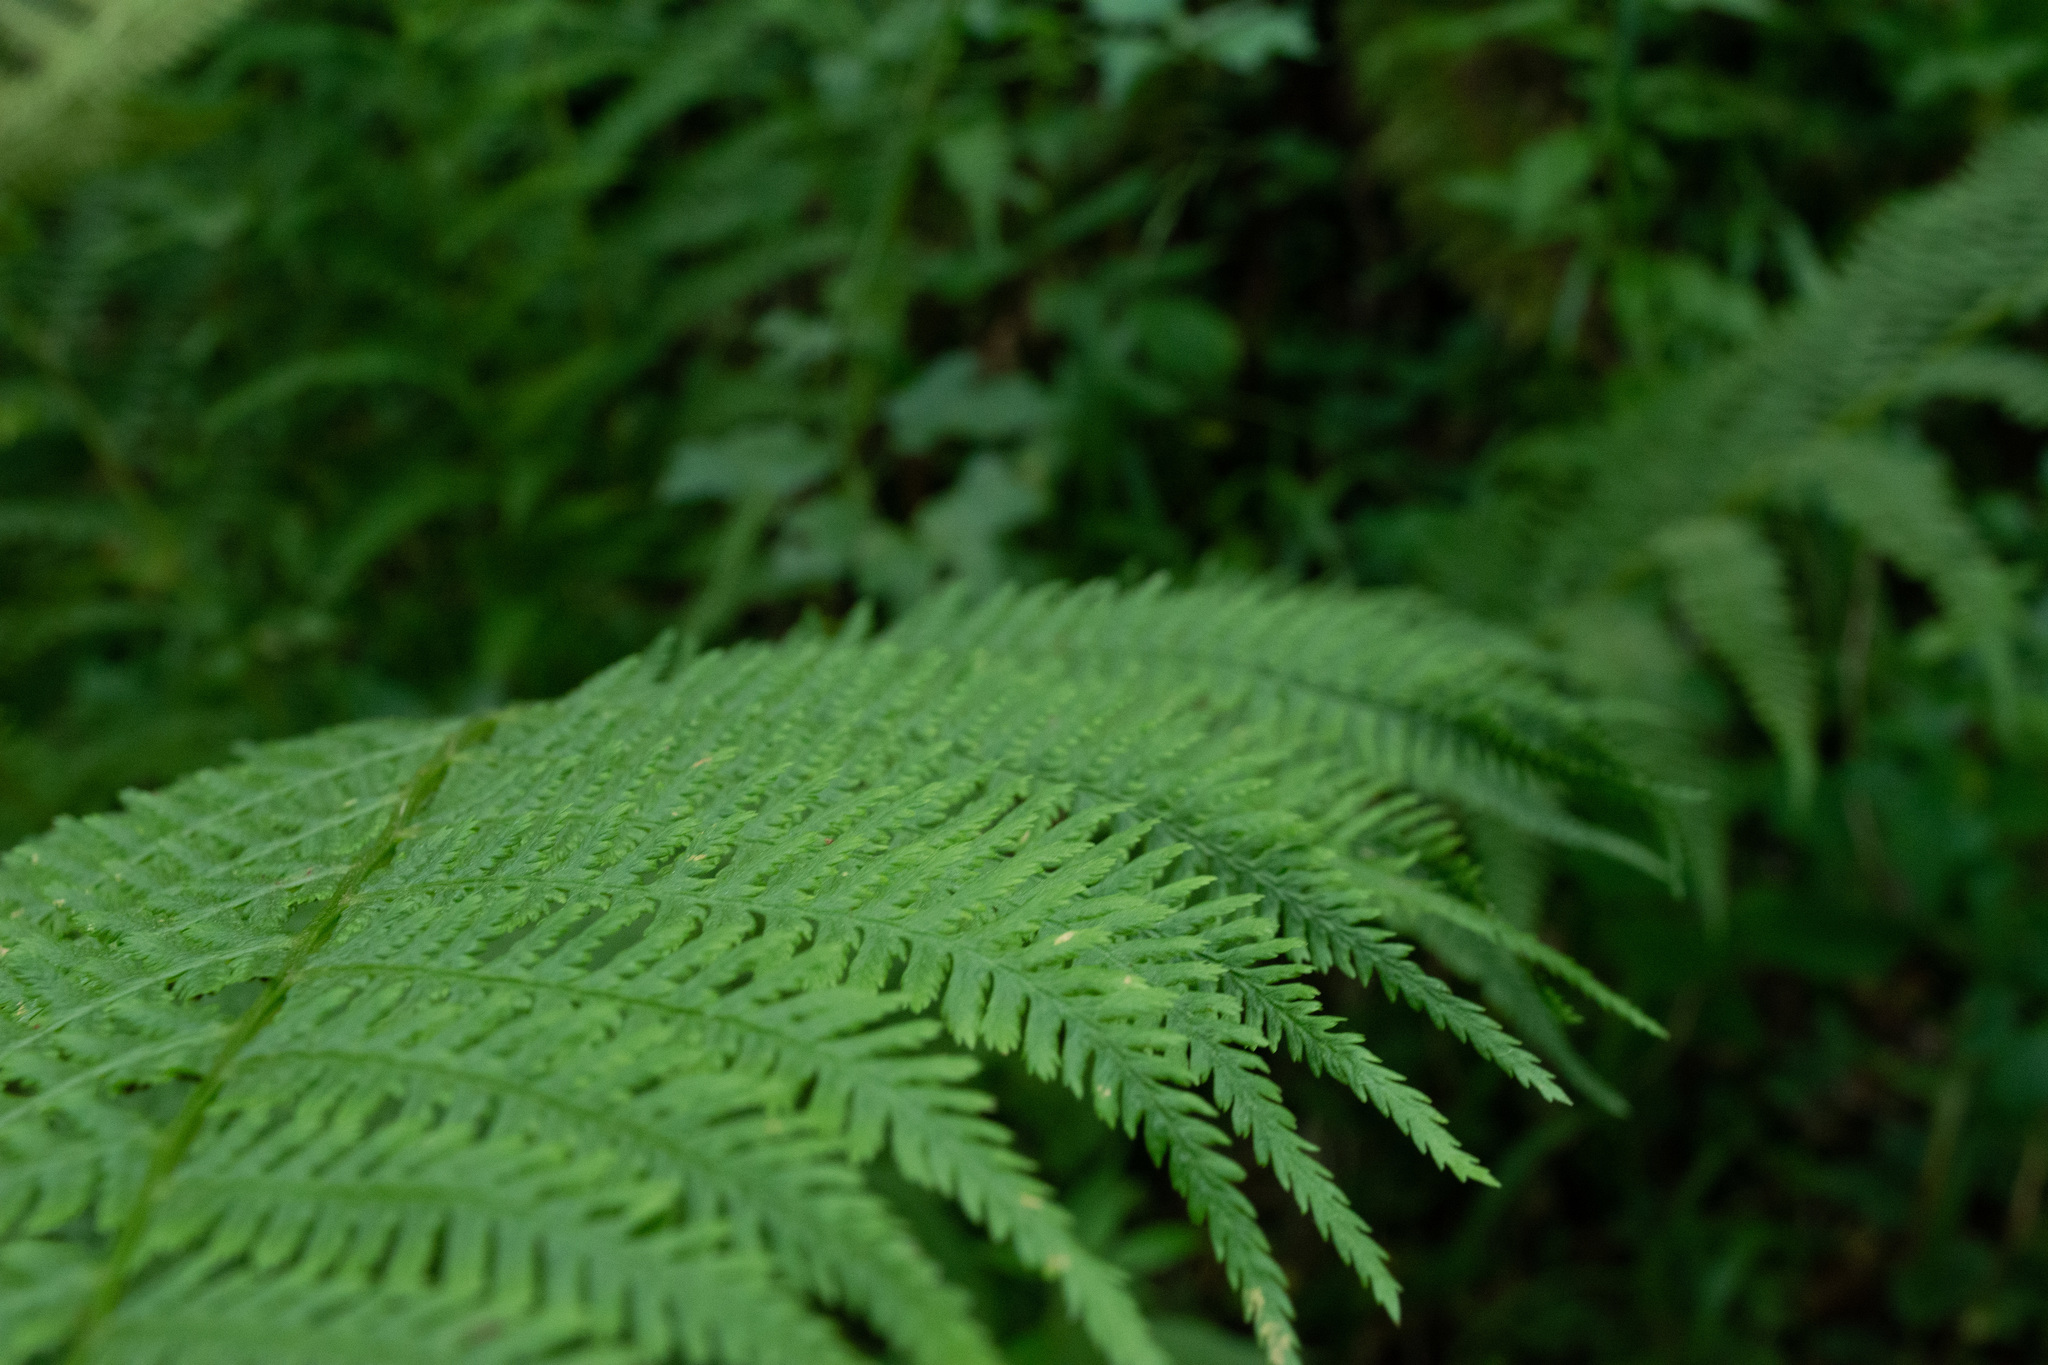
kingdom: Plantae
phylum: Tracheophyta
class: Polypodiopsida
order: Polypodiales
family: Athyriaceae
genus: Athyrium
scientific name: Athyrium filix-femina
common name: Lady fern
